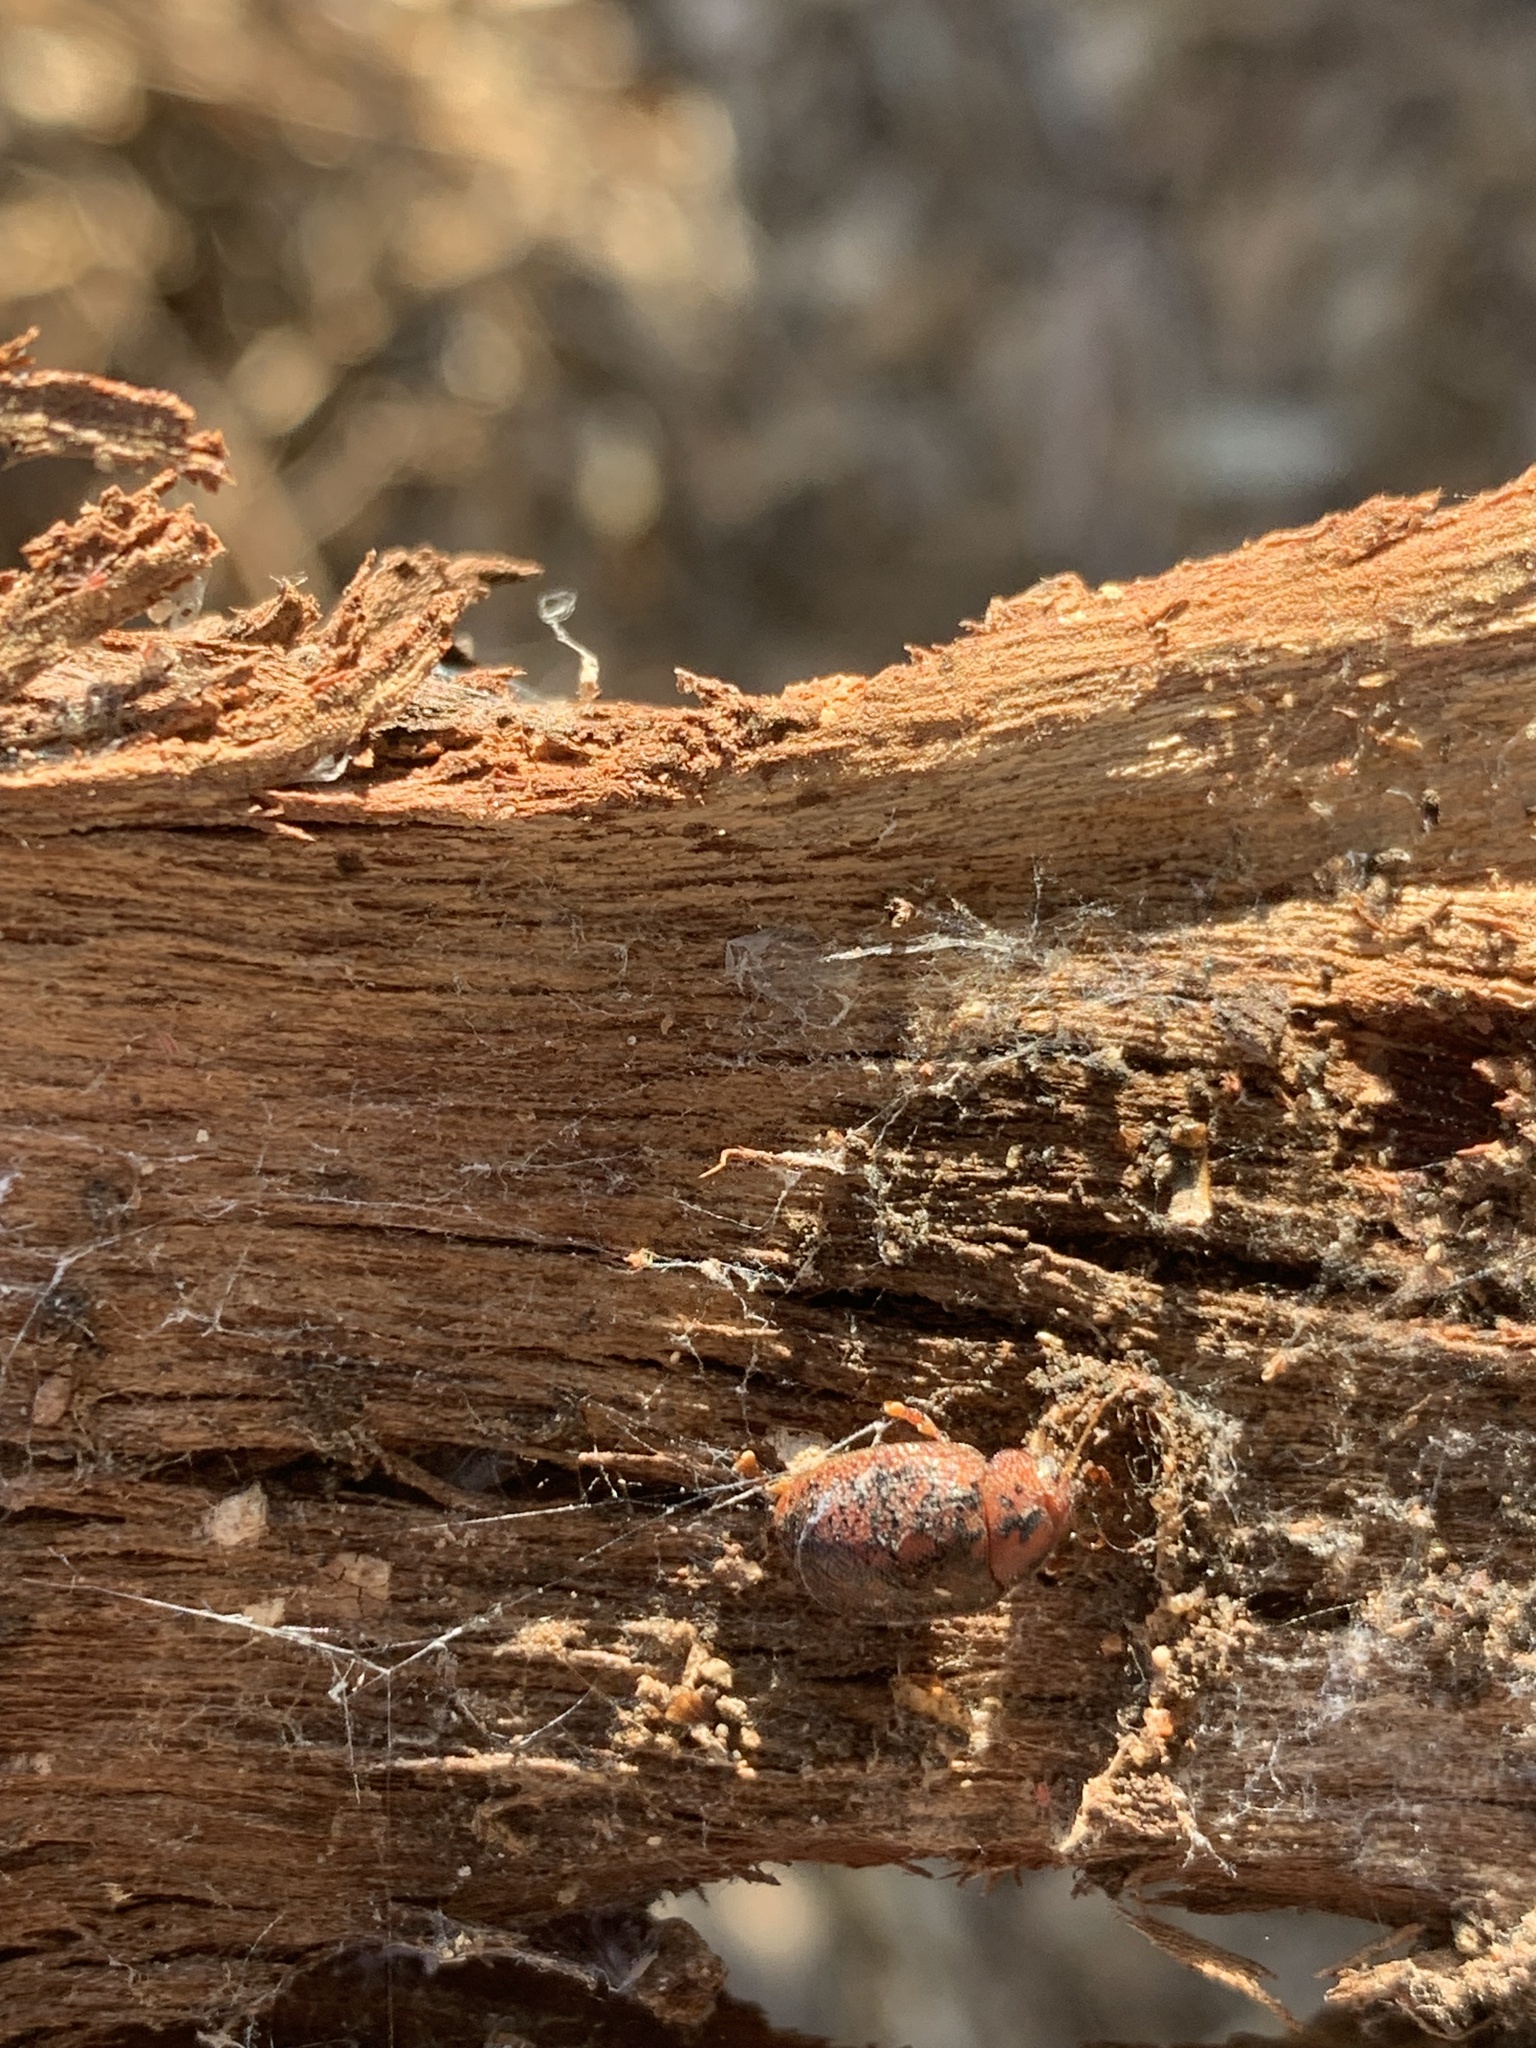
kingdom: Animalia
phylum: Arthropoda
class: Insecta
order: Coleoptera
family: Chrysomelidae
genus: Trachymela
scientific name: Trachymela sloanei
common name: Australian tortoise beetle
